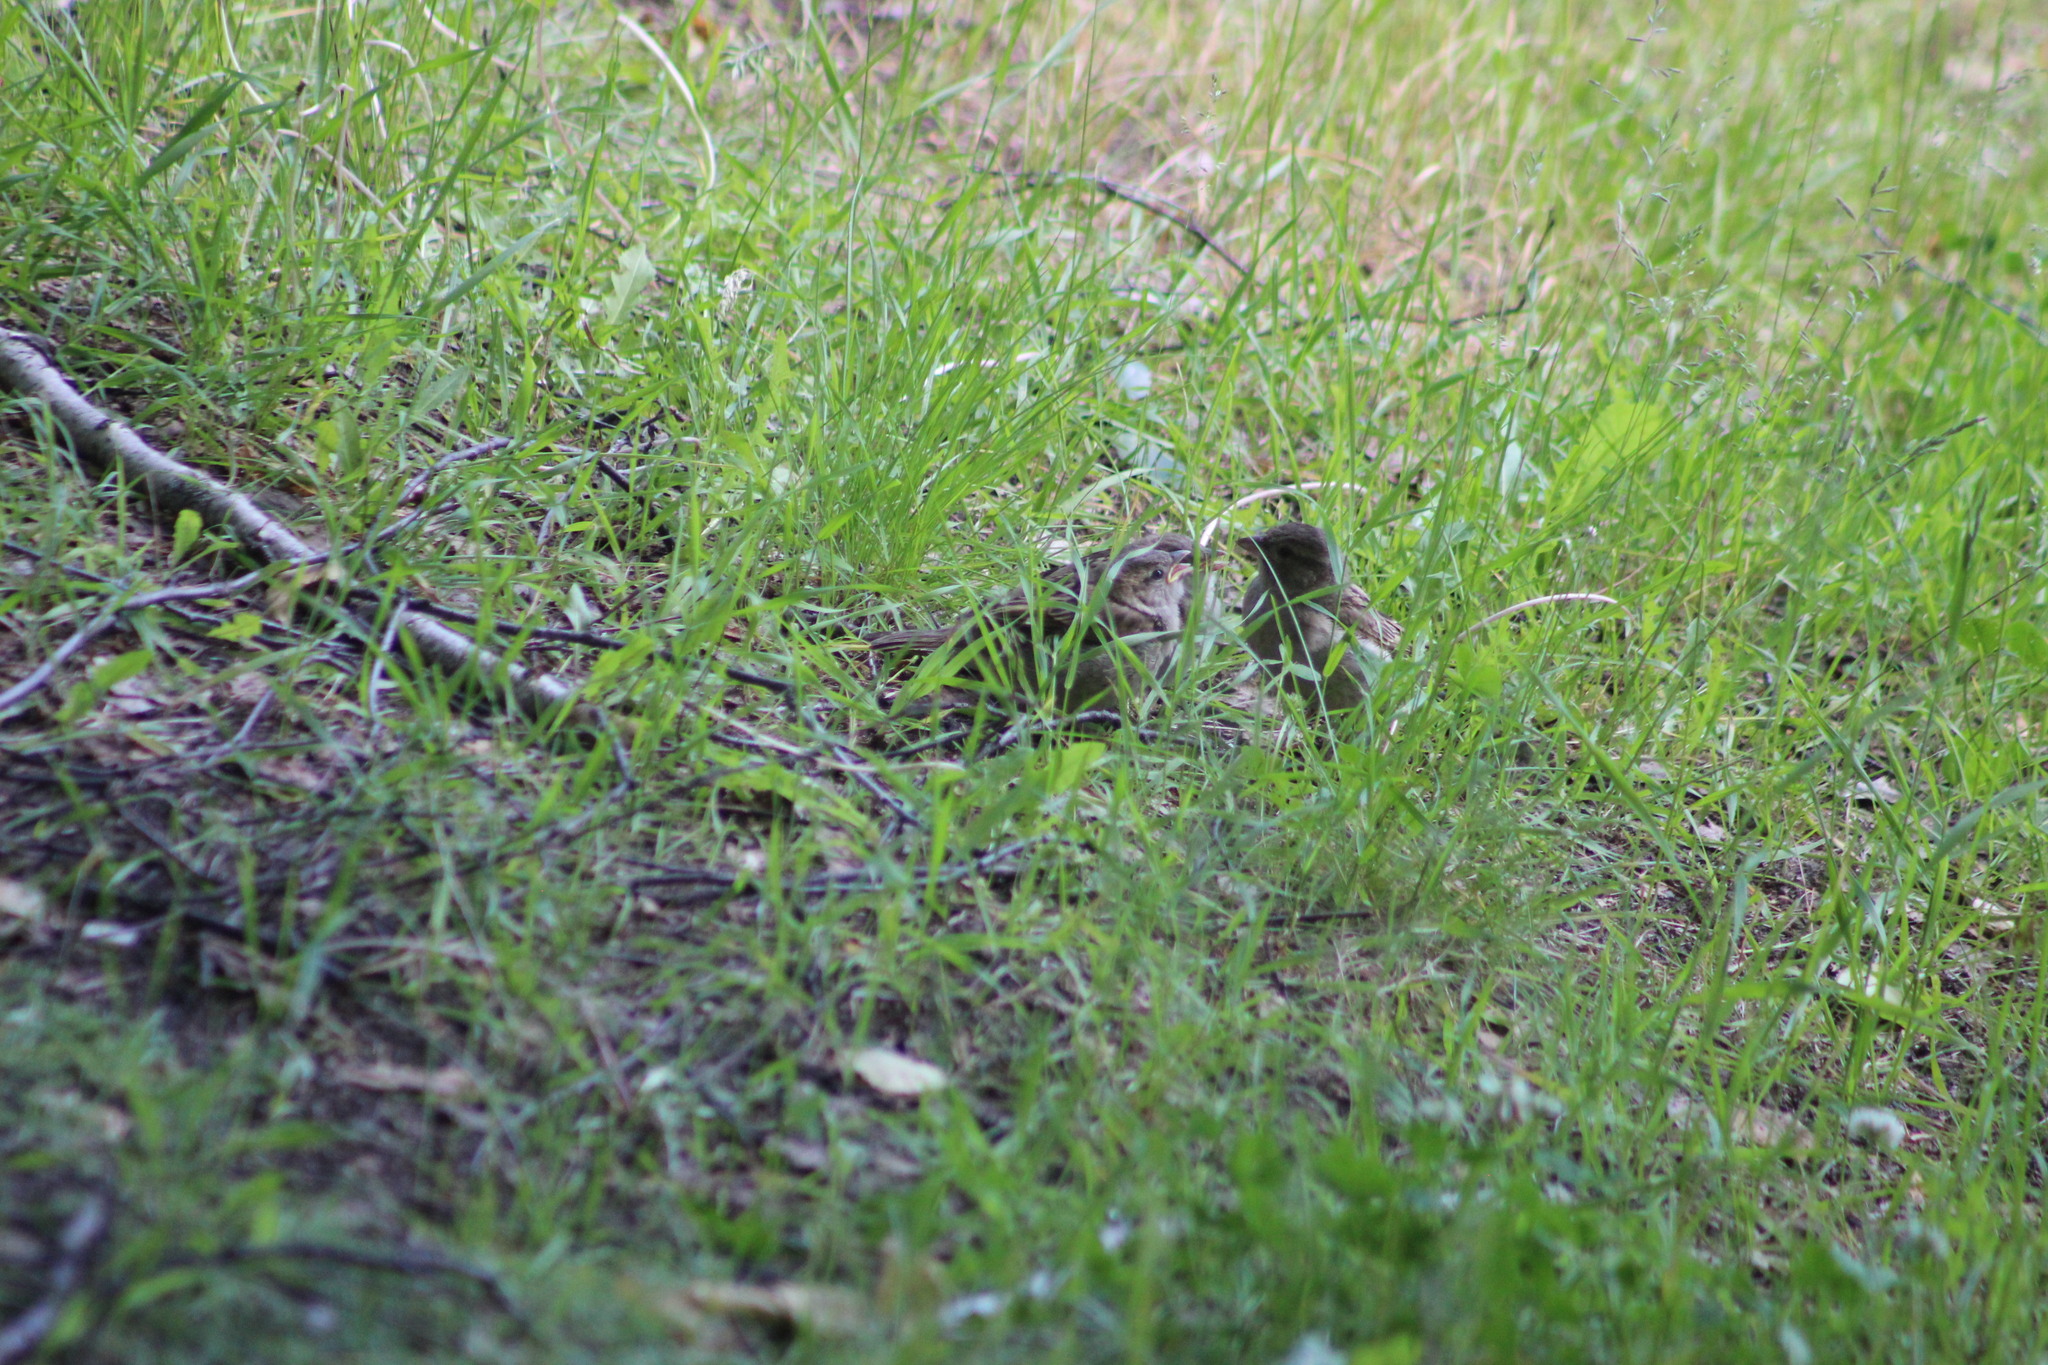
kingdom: Animalia
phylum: Chordata
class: Aves
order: Passeriformes
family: Passeridae
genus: Passer
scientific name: Passer domesticus
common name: House sparrow
